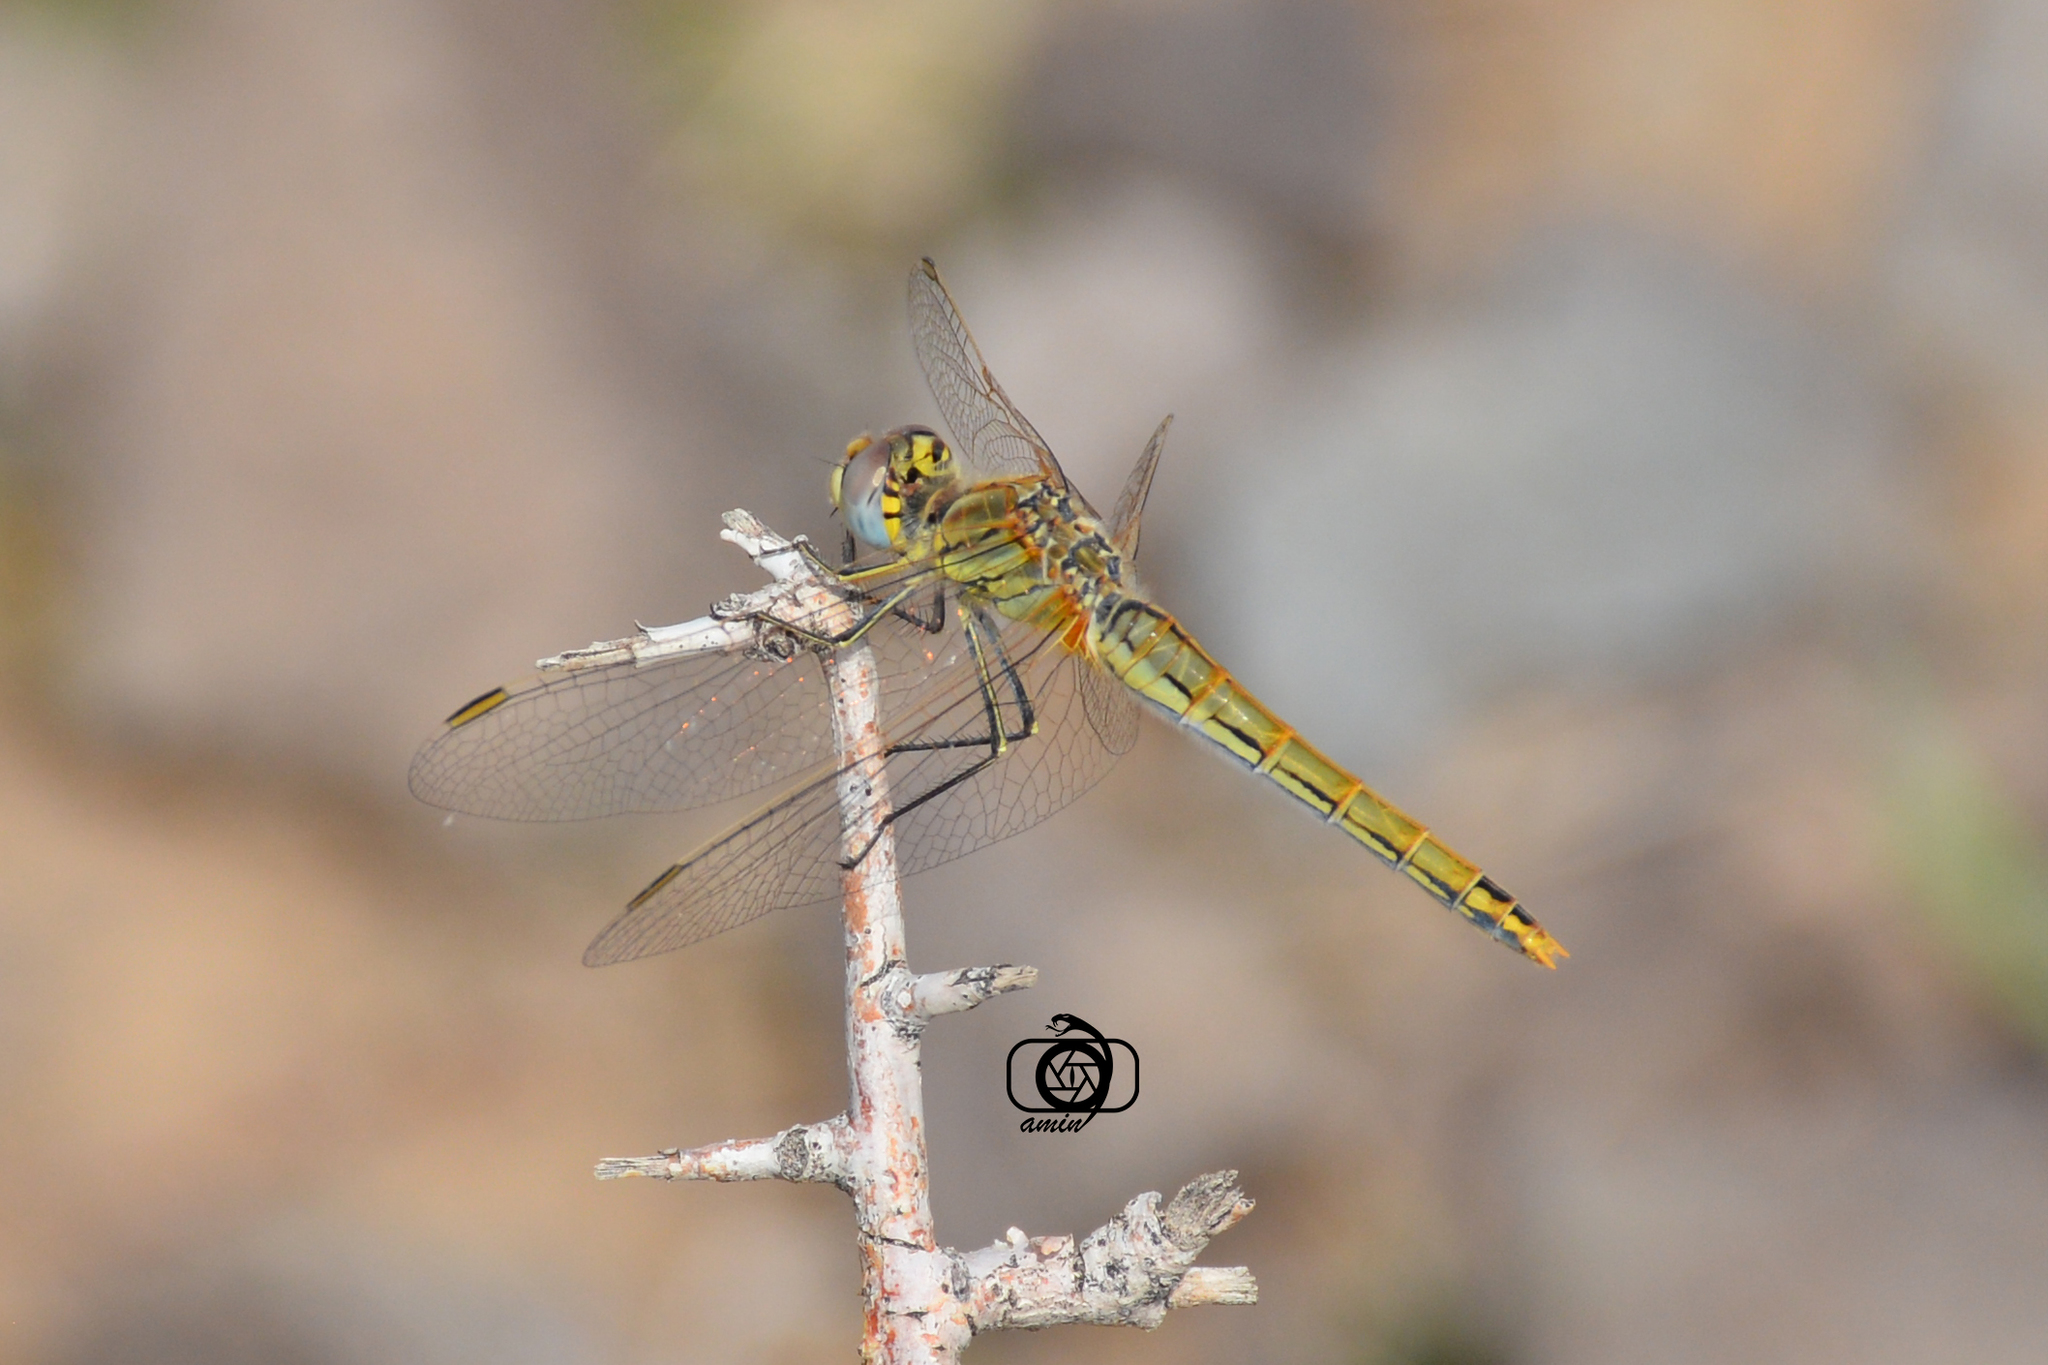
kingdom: Animalia
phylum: Arthropoda
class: Insecta
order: Odonata
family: Libellulidae
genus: Sympetrum
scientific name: Sympetrum fonscolombii
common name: Red-veined darter
